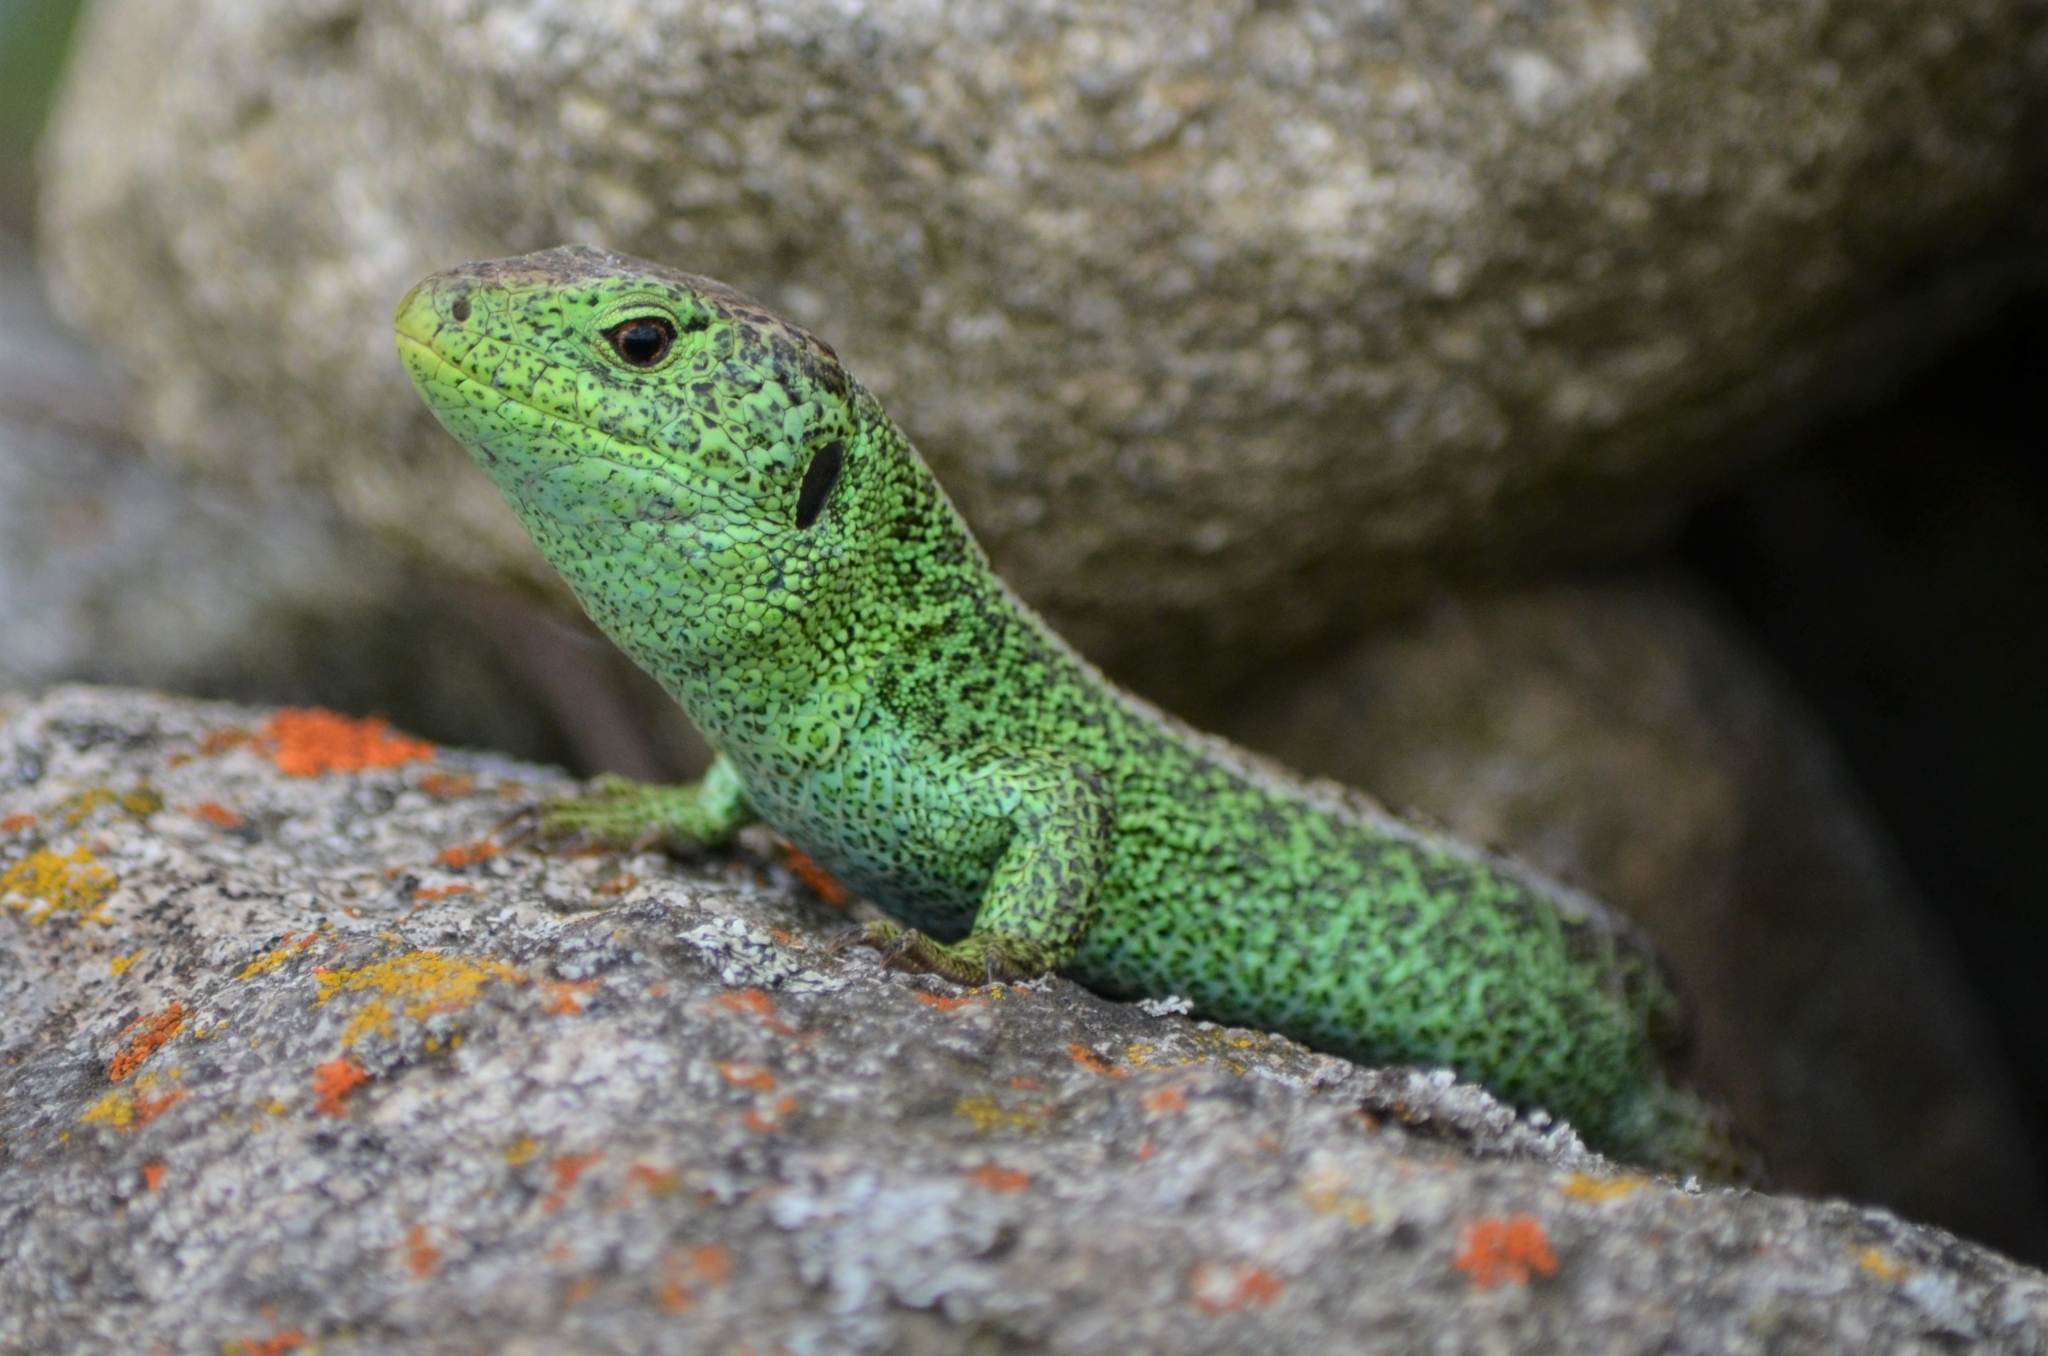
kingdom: Animalia
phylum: Chordata
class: Squamata
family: Lacertidae
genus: Lacerta
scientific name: Lacerta agilis
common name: Sand lizard
